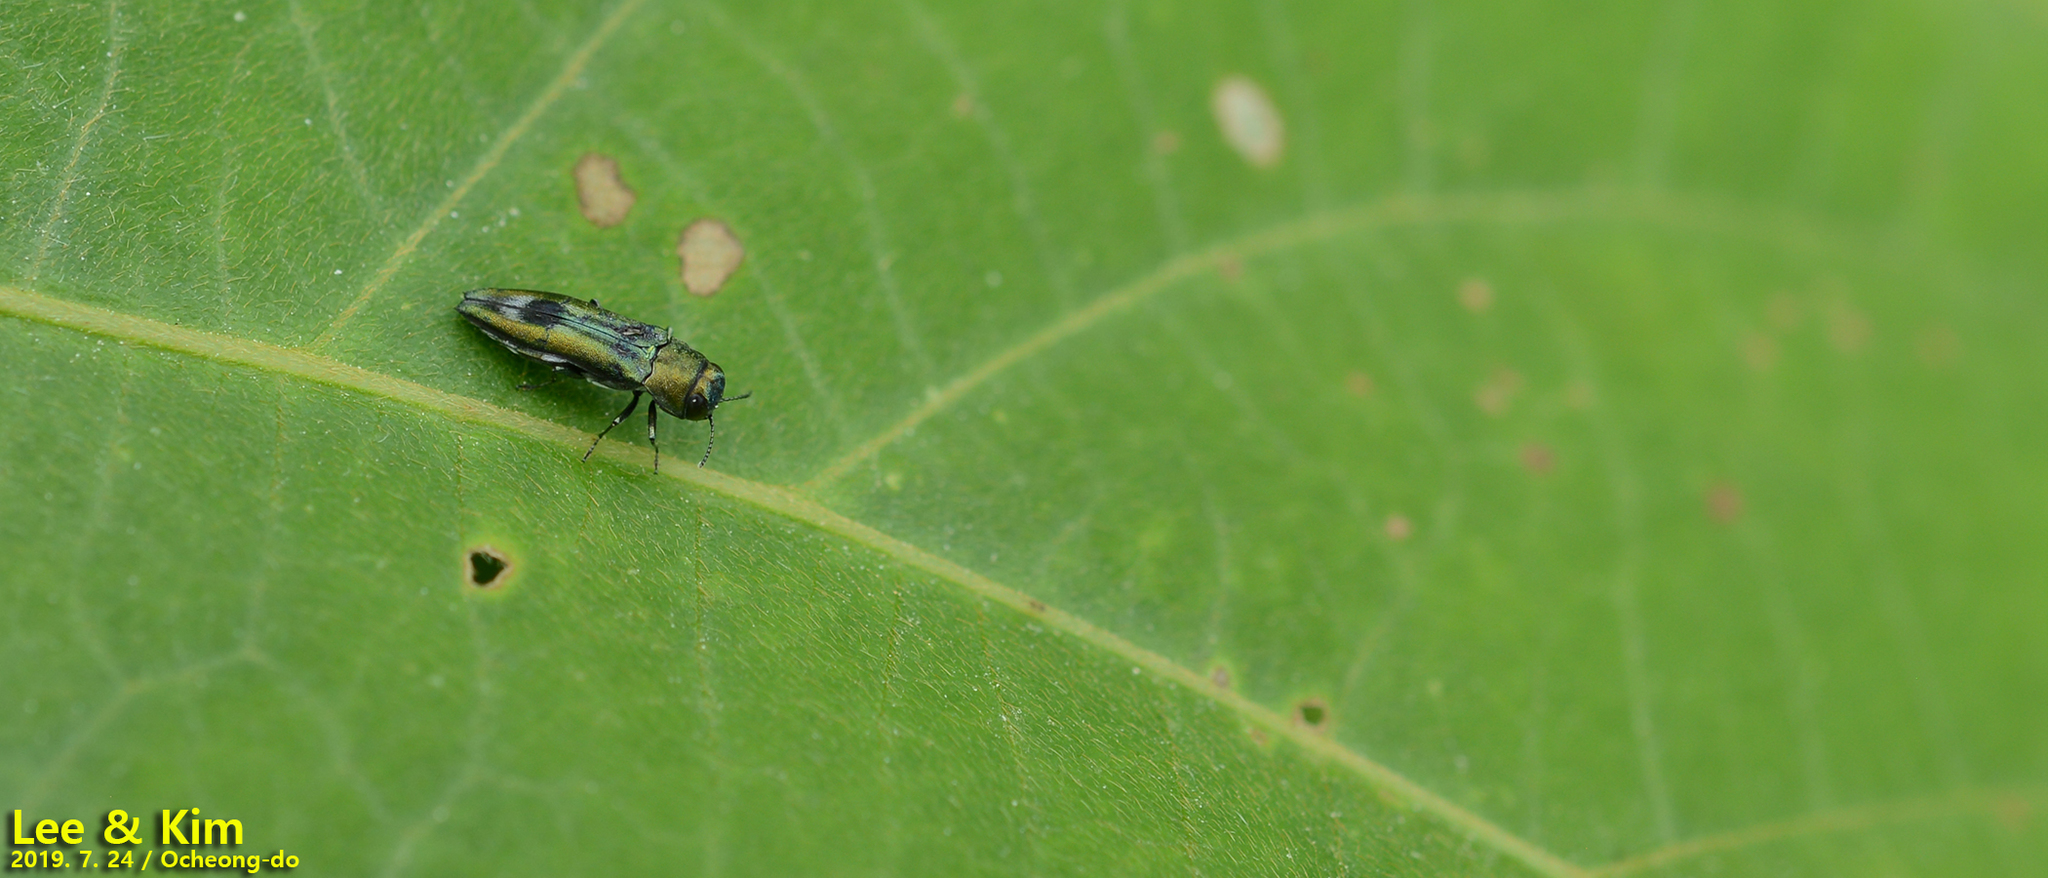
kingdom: Animalia
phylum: Arthropoda
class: Insecta
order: Coleoptera
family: Buprestidae
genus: Agrilus
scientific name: Agrilus chujoi
